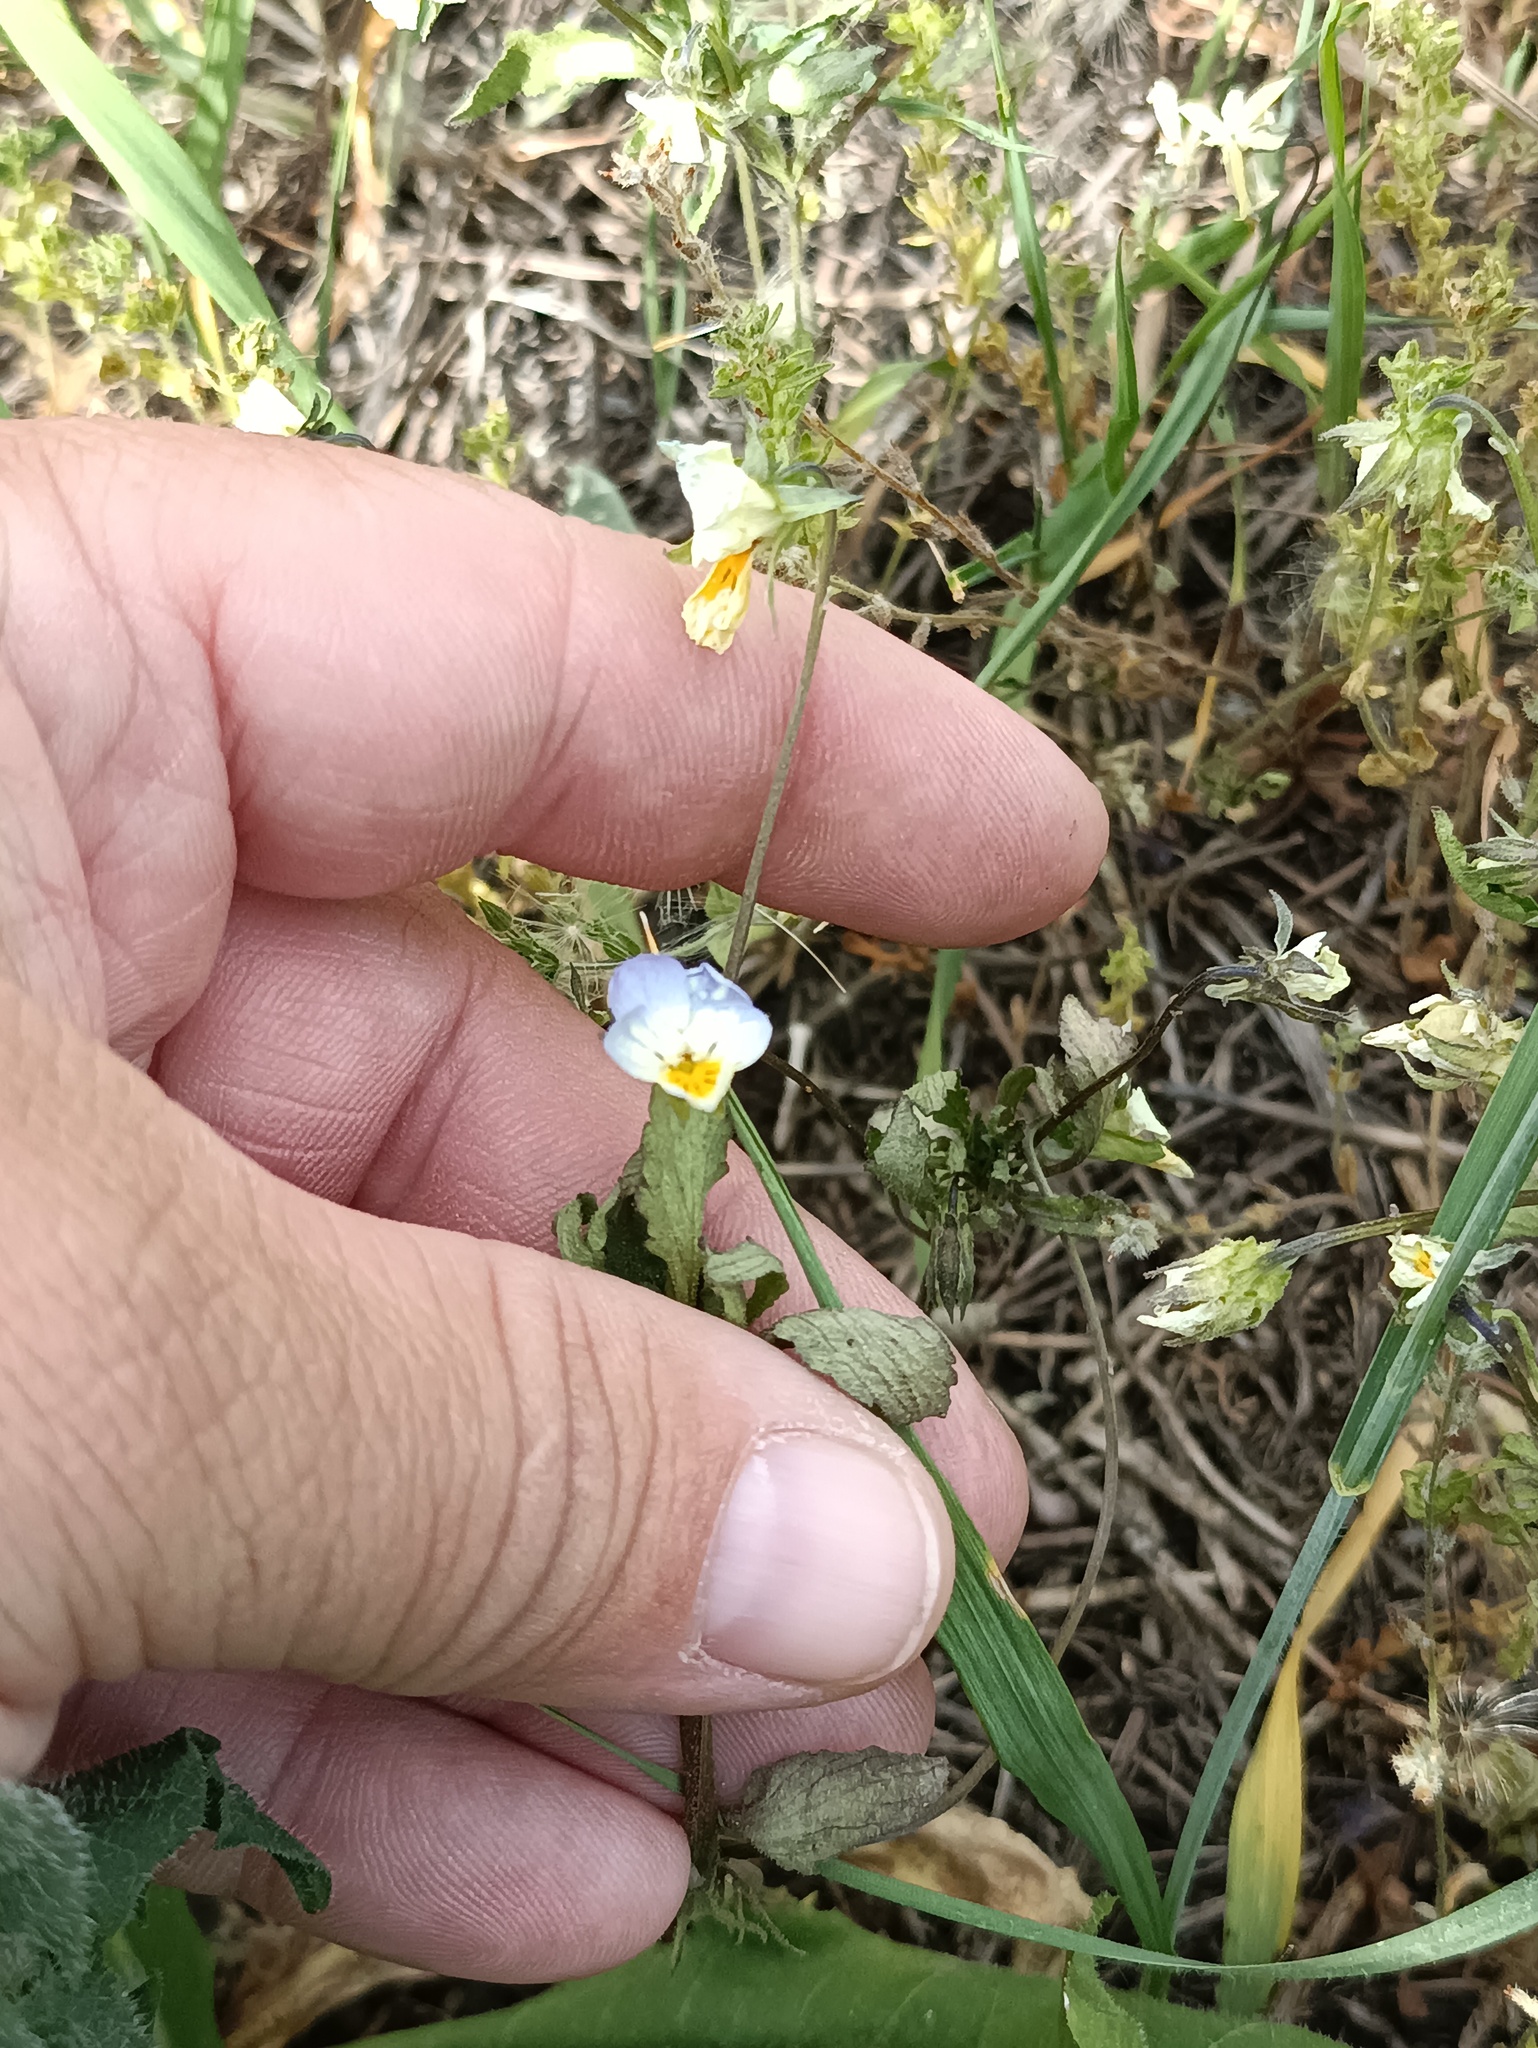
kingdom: Plantae
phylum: Tracheophyta
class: Magnoliopsida
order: Malpighiales
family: Violaceae
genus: Viola
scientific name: Viola contempta
